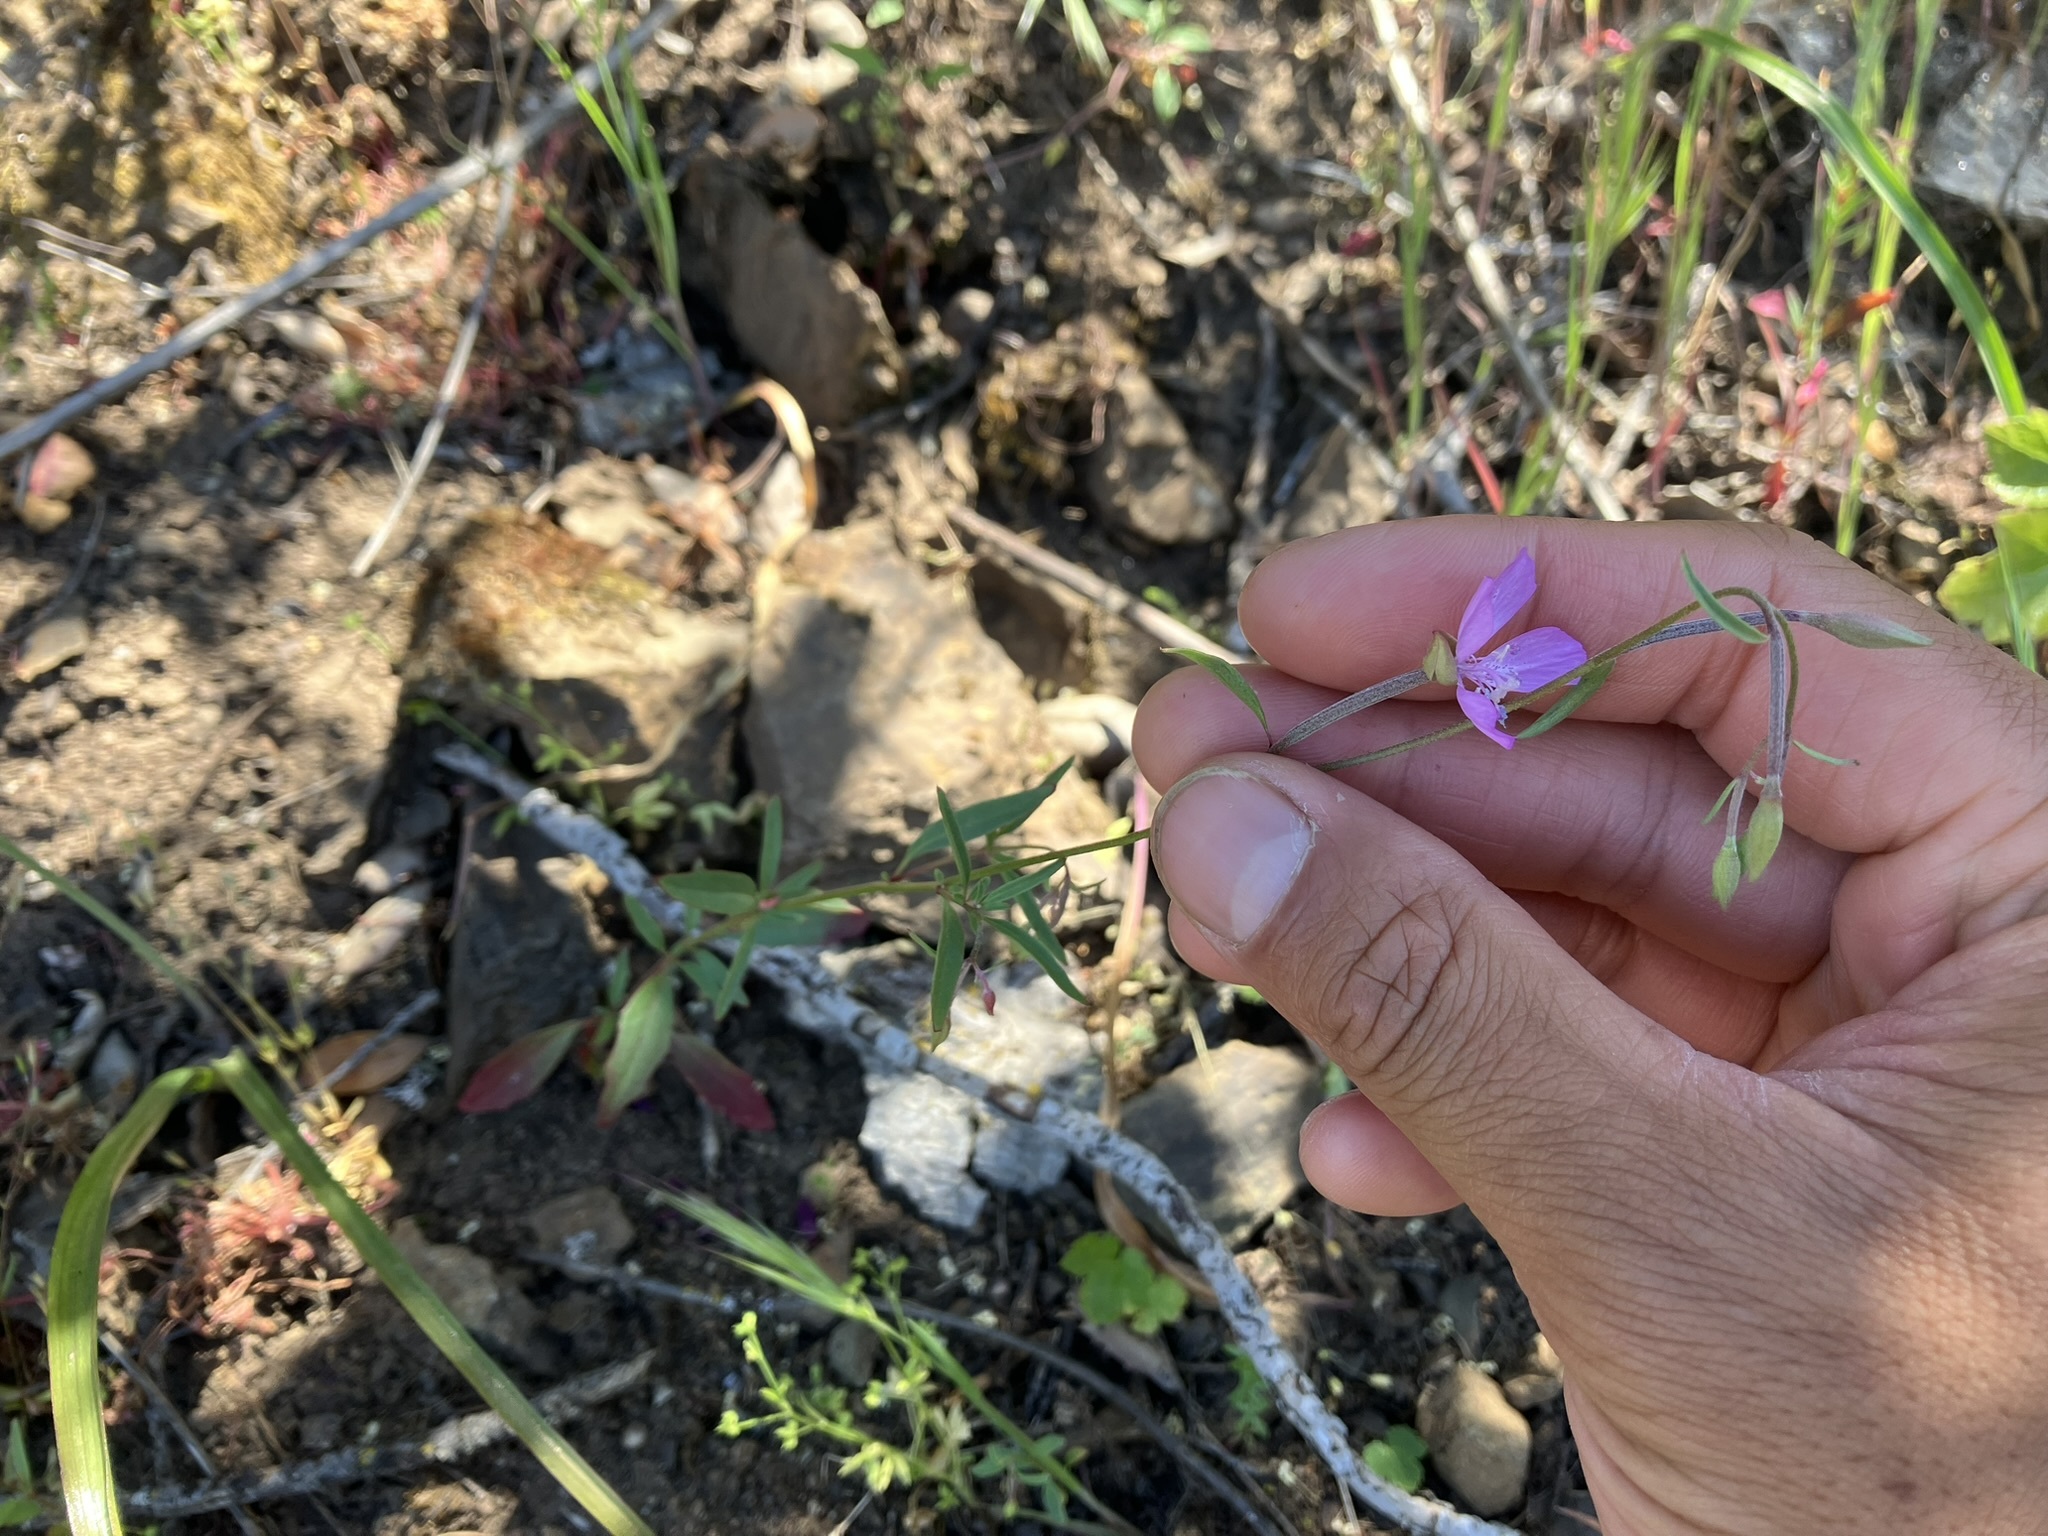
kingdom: Plantae
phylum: Tracheophyta
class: Magnoliopsida
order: Myrtales
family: Onagraceae
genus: Clarkia
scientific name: Clarkia modesta
